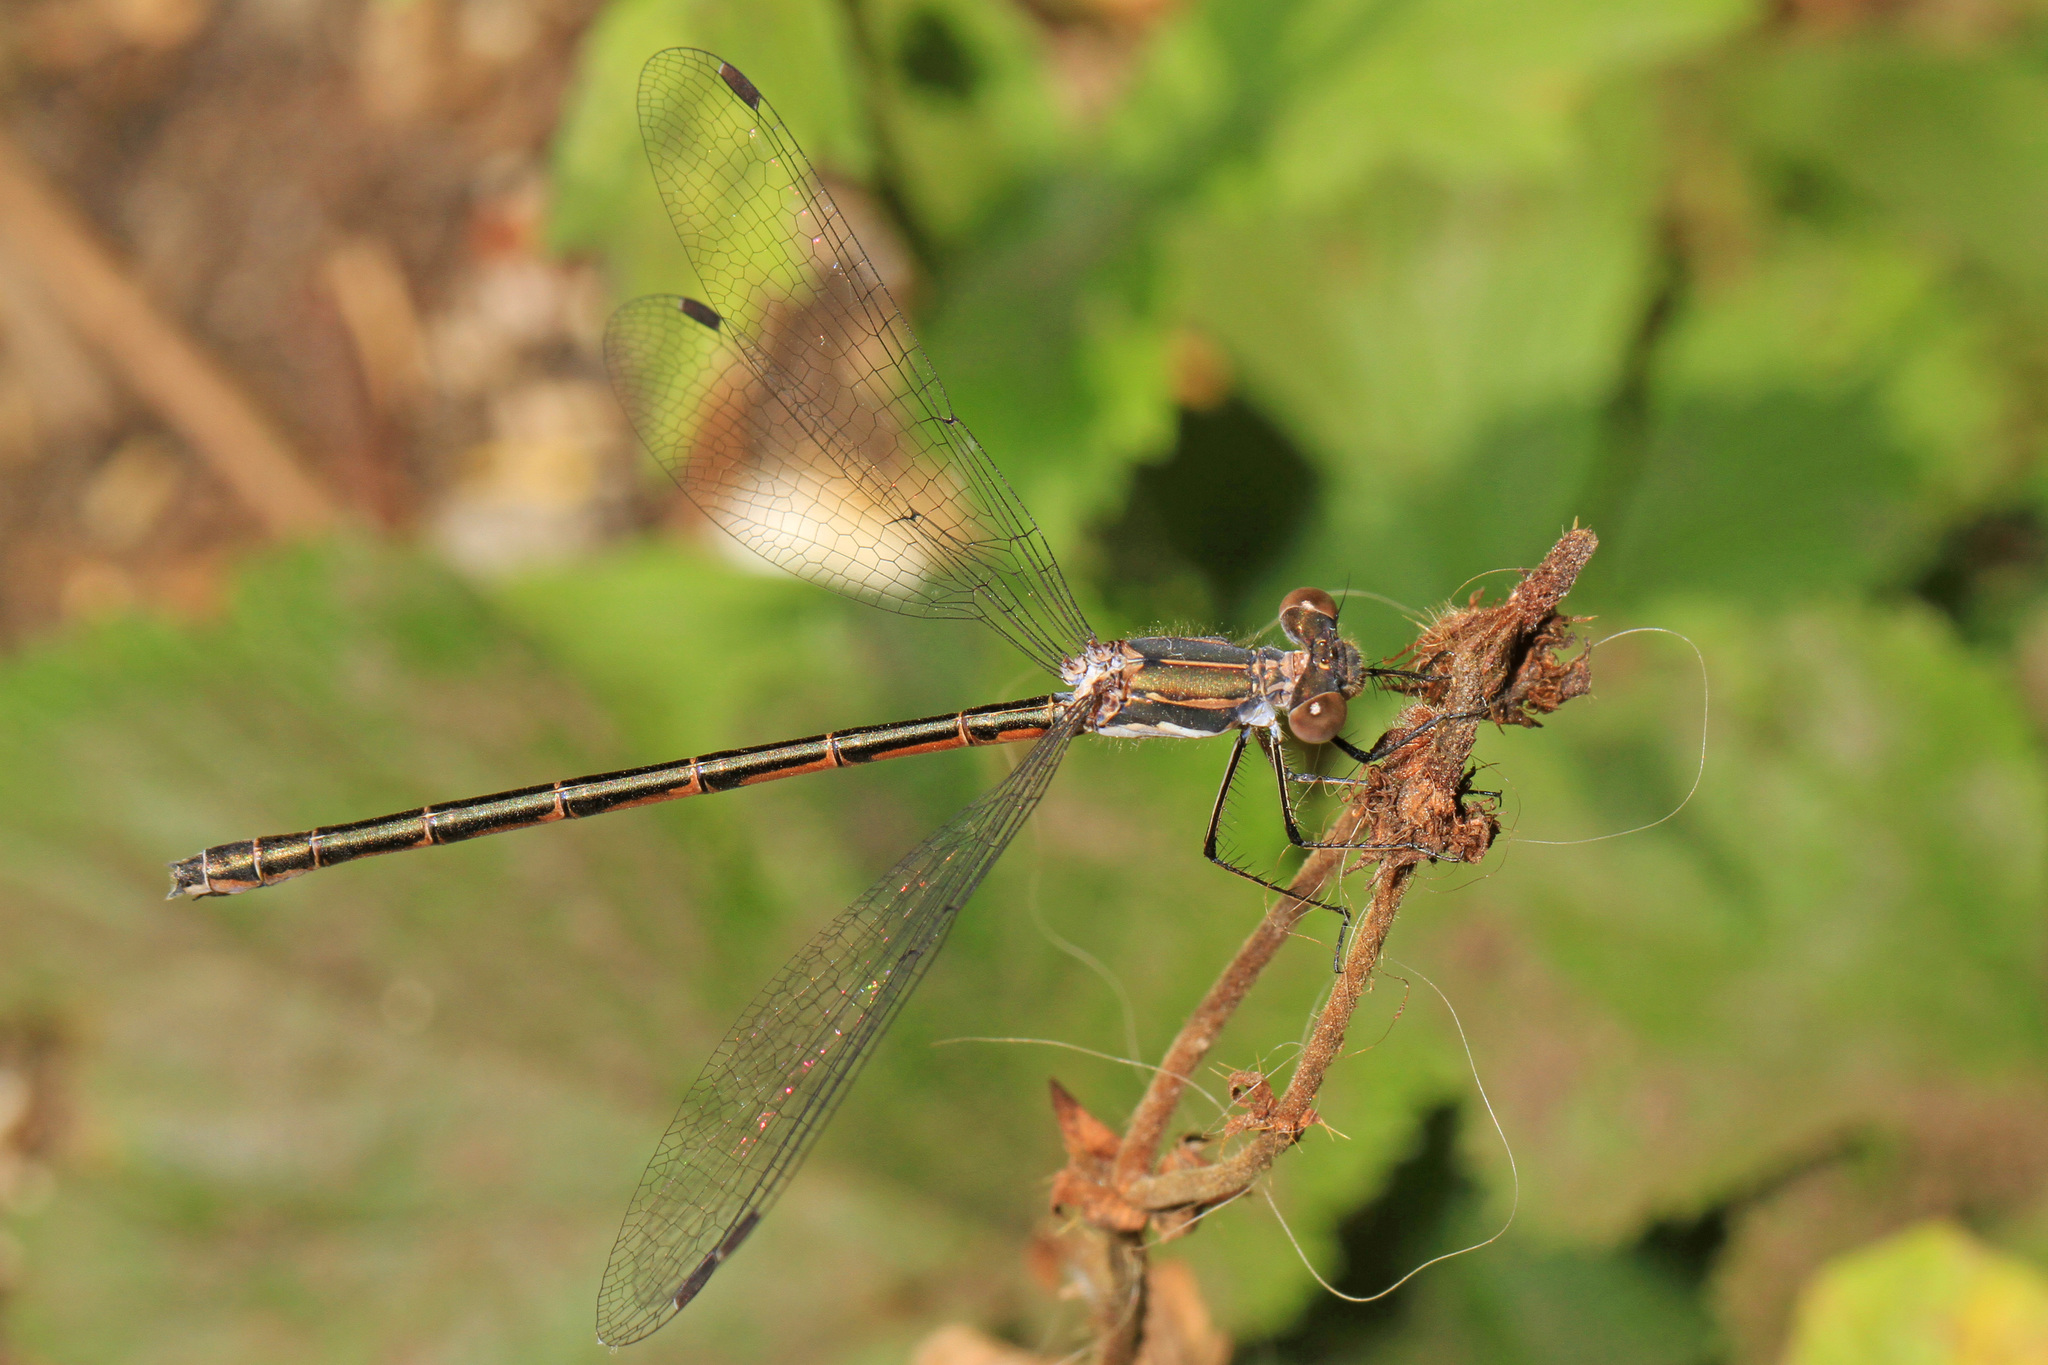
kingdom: Animalia
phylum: Arthropoda
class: Insecta
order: Odonata
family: Lestidae
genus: Lestes
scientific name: Lestes congener
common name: Spotted spreadwing
